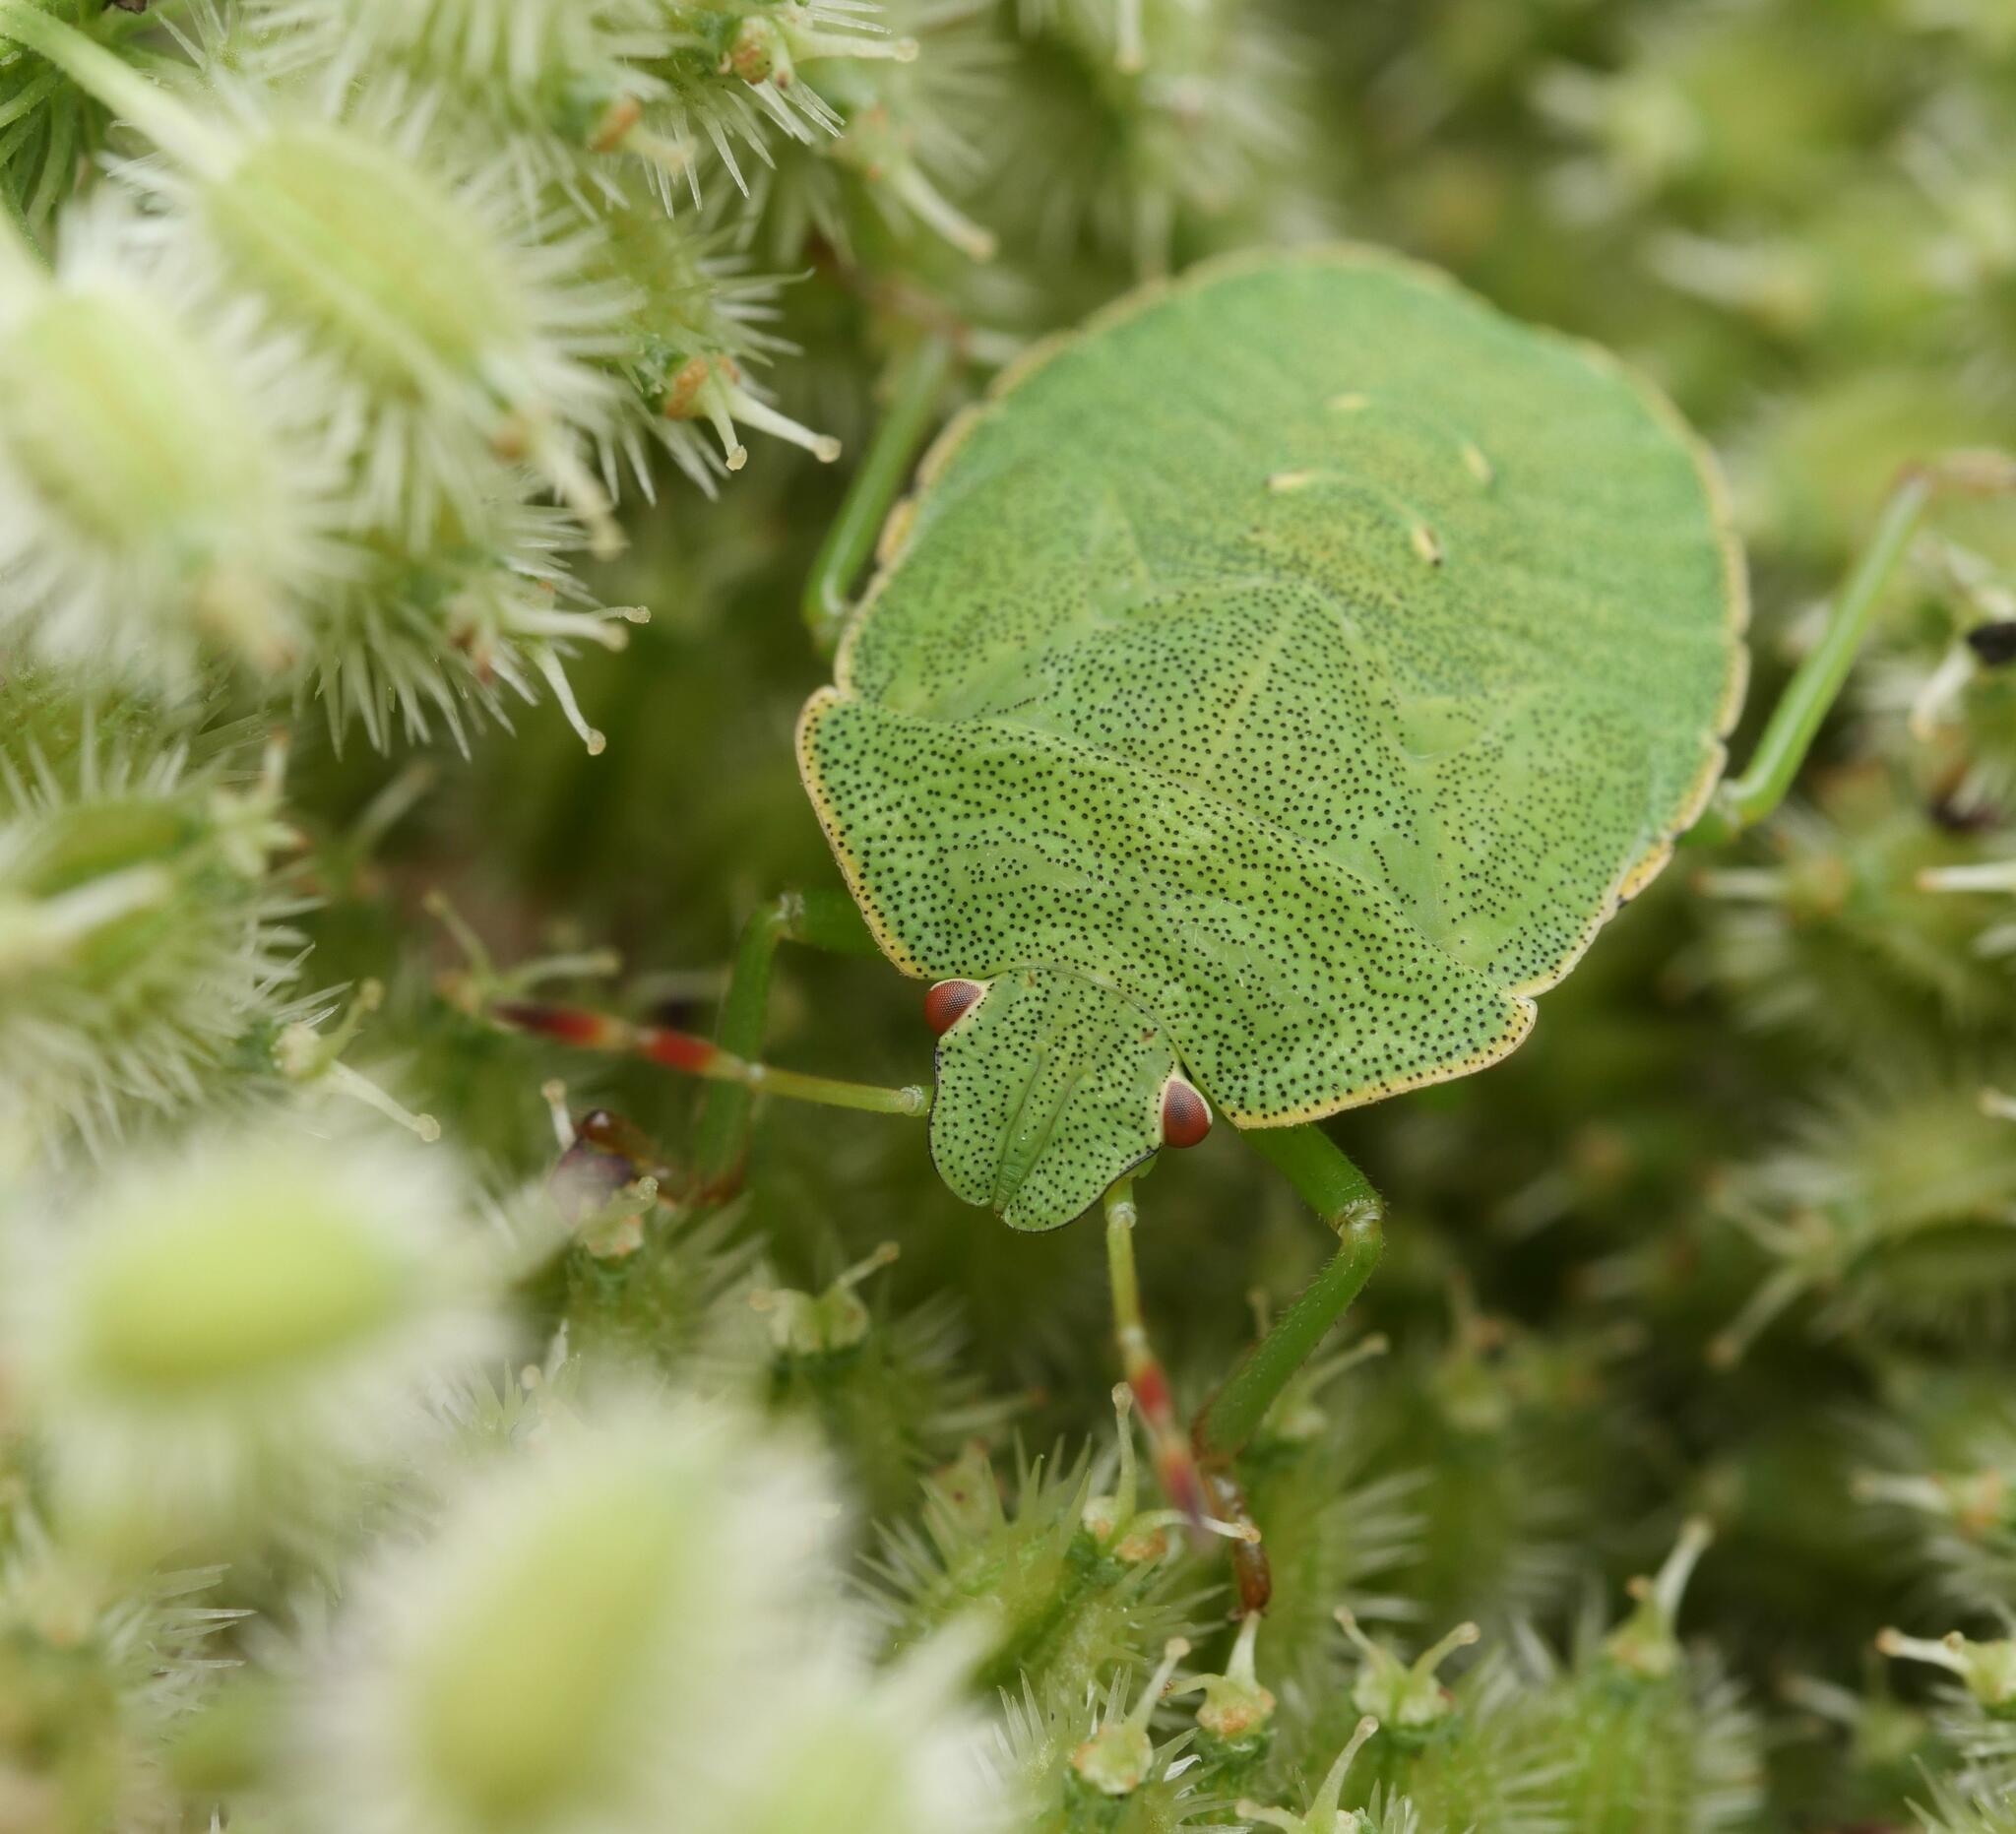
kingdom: Animalia
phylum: Arthropoda
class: Insecta
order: Hemiptera
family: Pentatomidae
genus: Palomena
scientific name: Palomena prasina
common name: Green shieldbug
